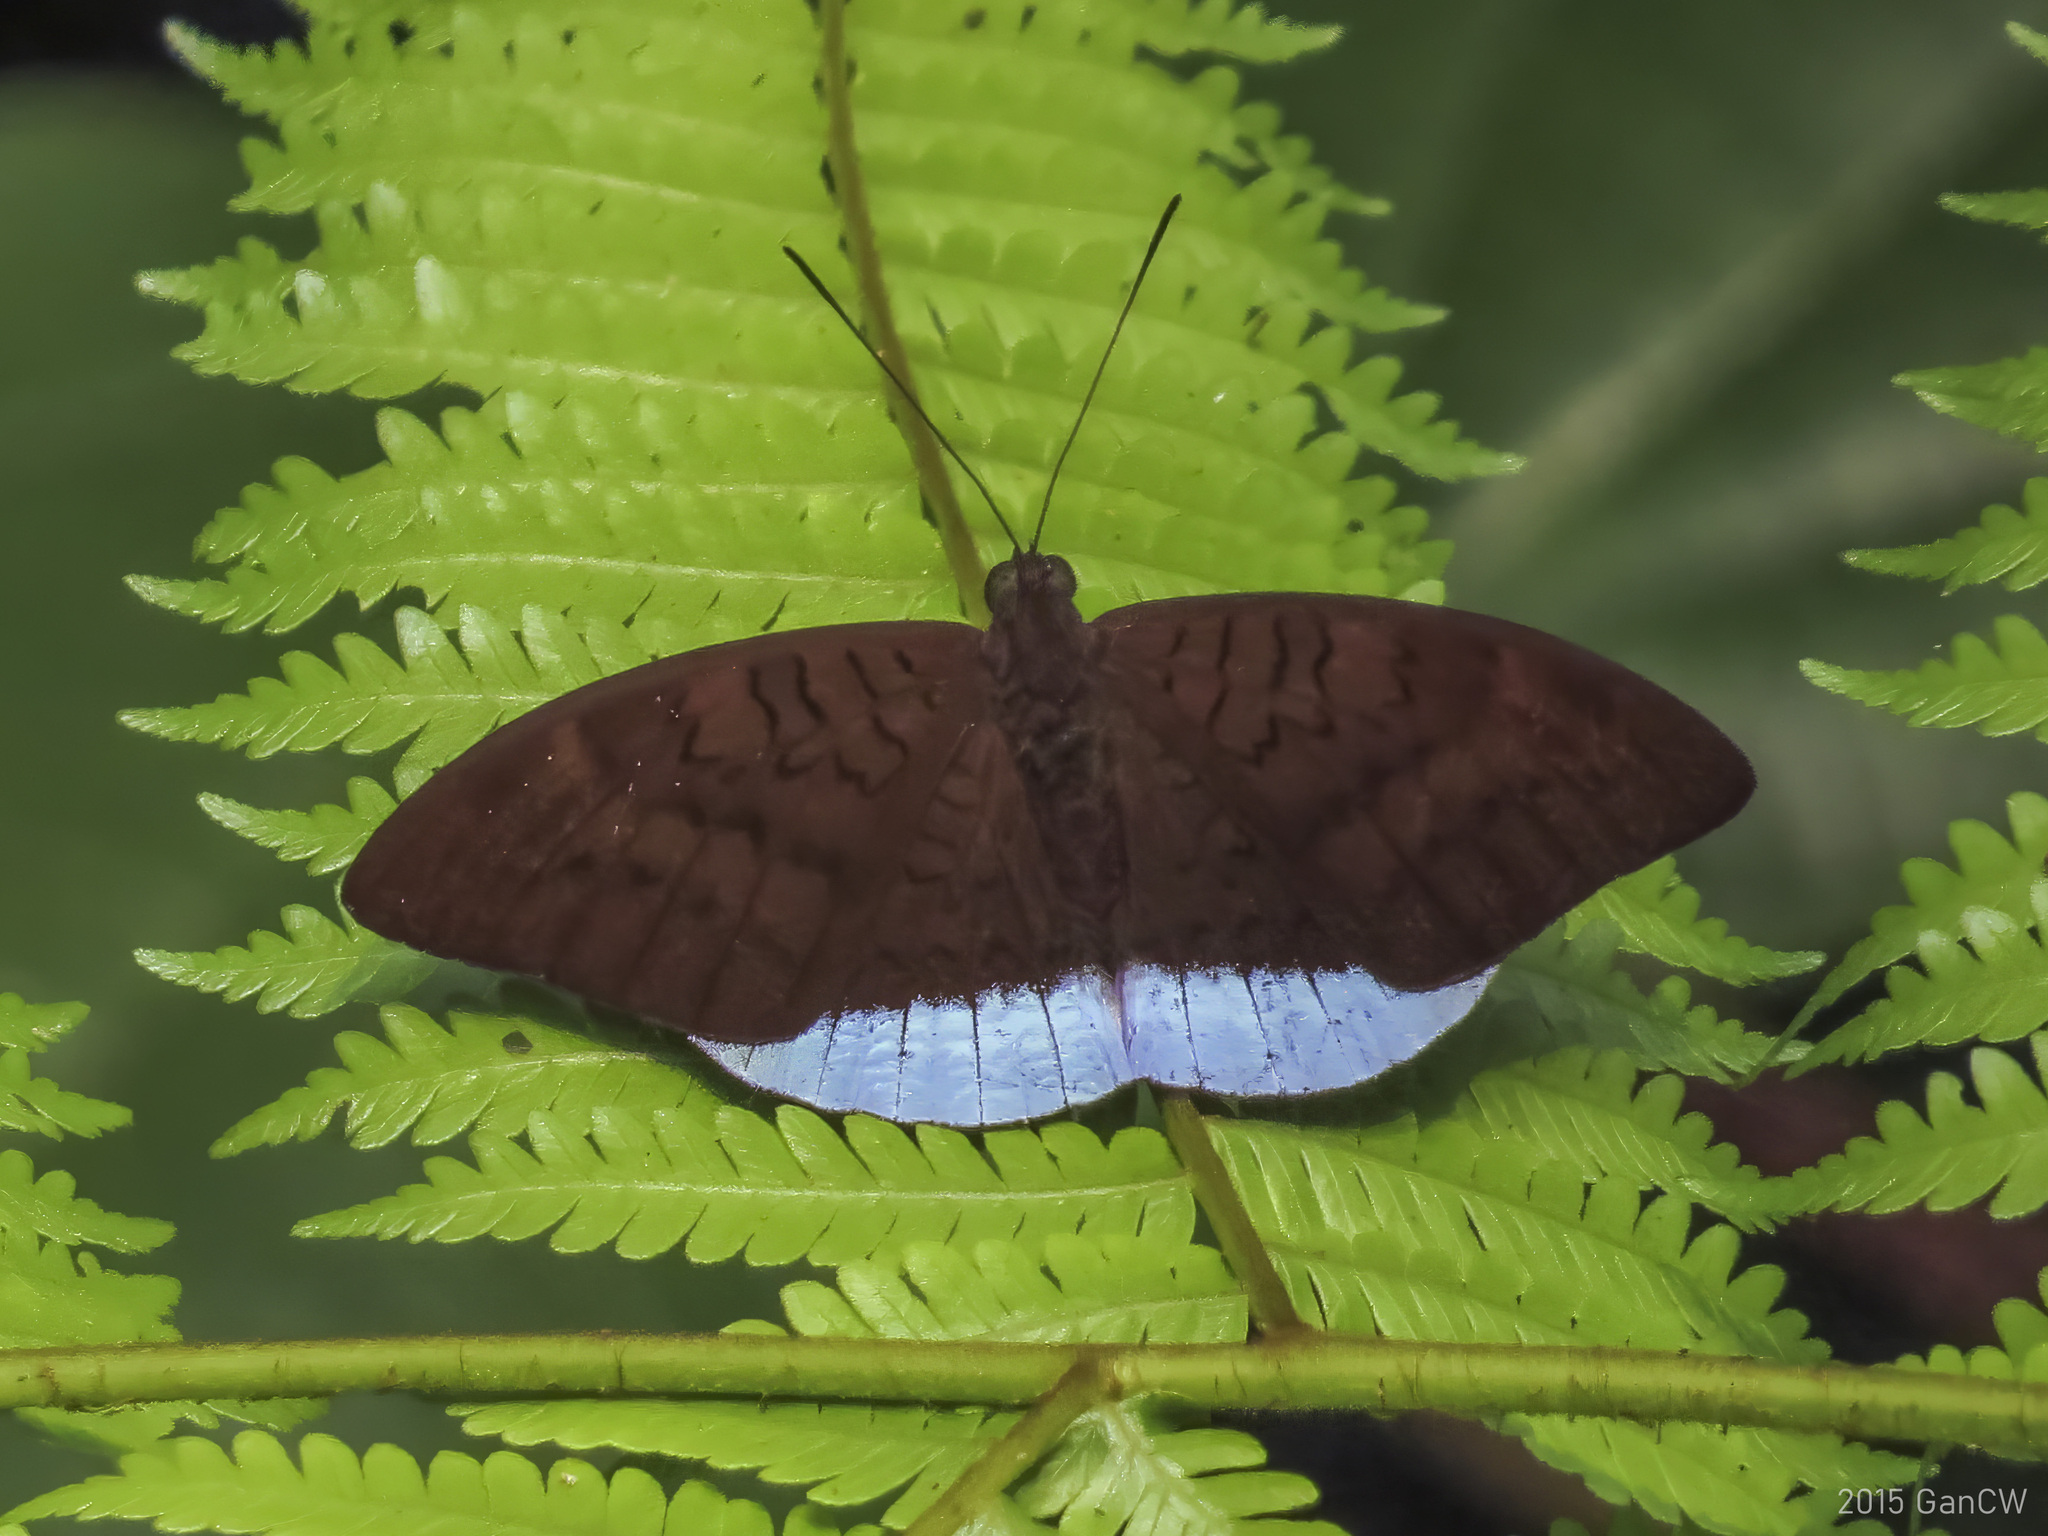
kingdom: Animalia
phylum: Arthropoda
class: Insecta
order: Lepidoptera
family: Nymphalidae
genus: Tanaecia
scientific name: Tanaecia julii
